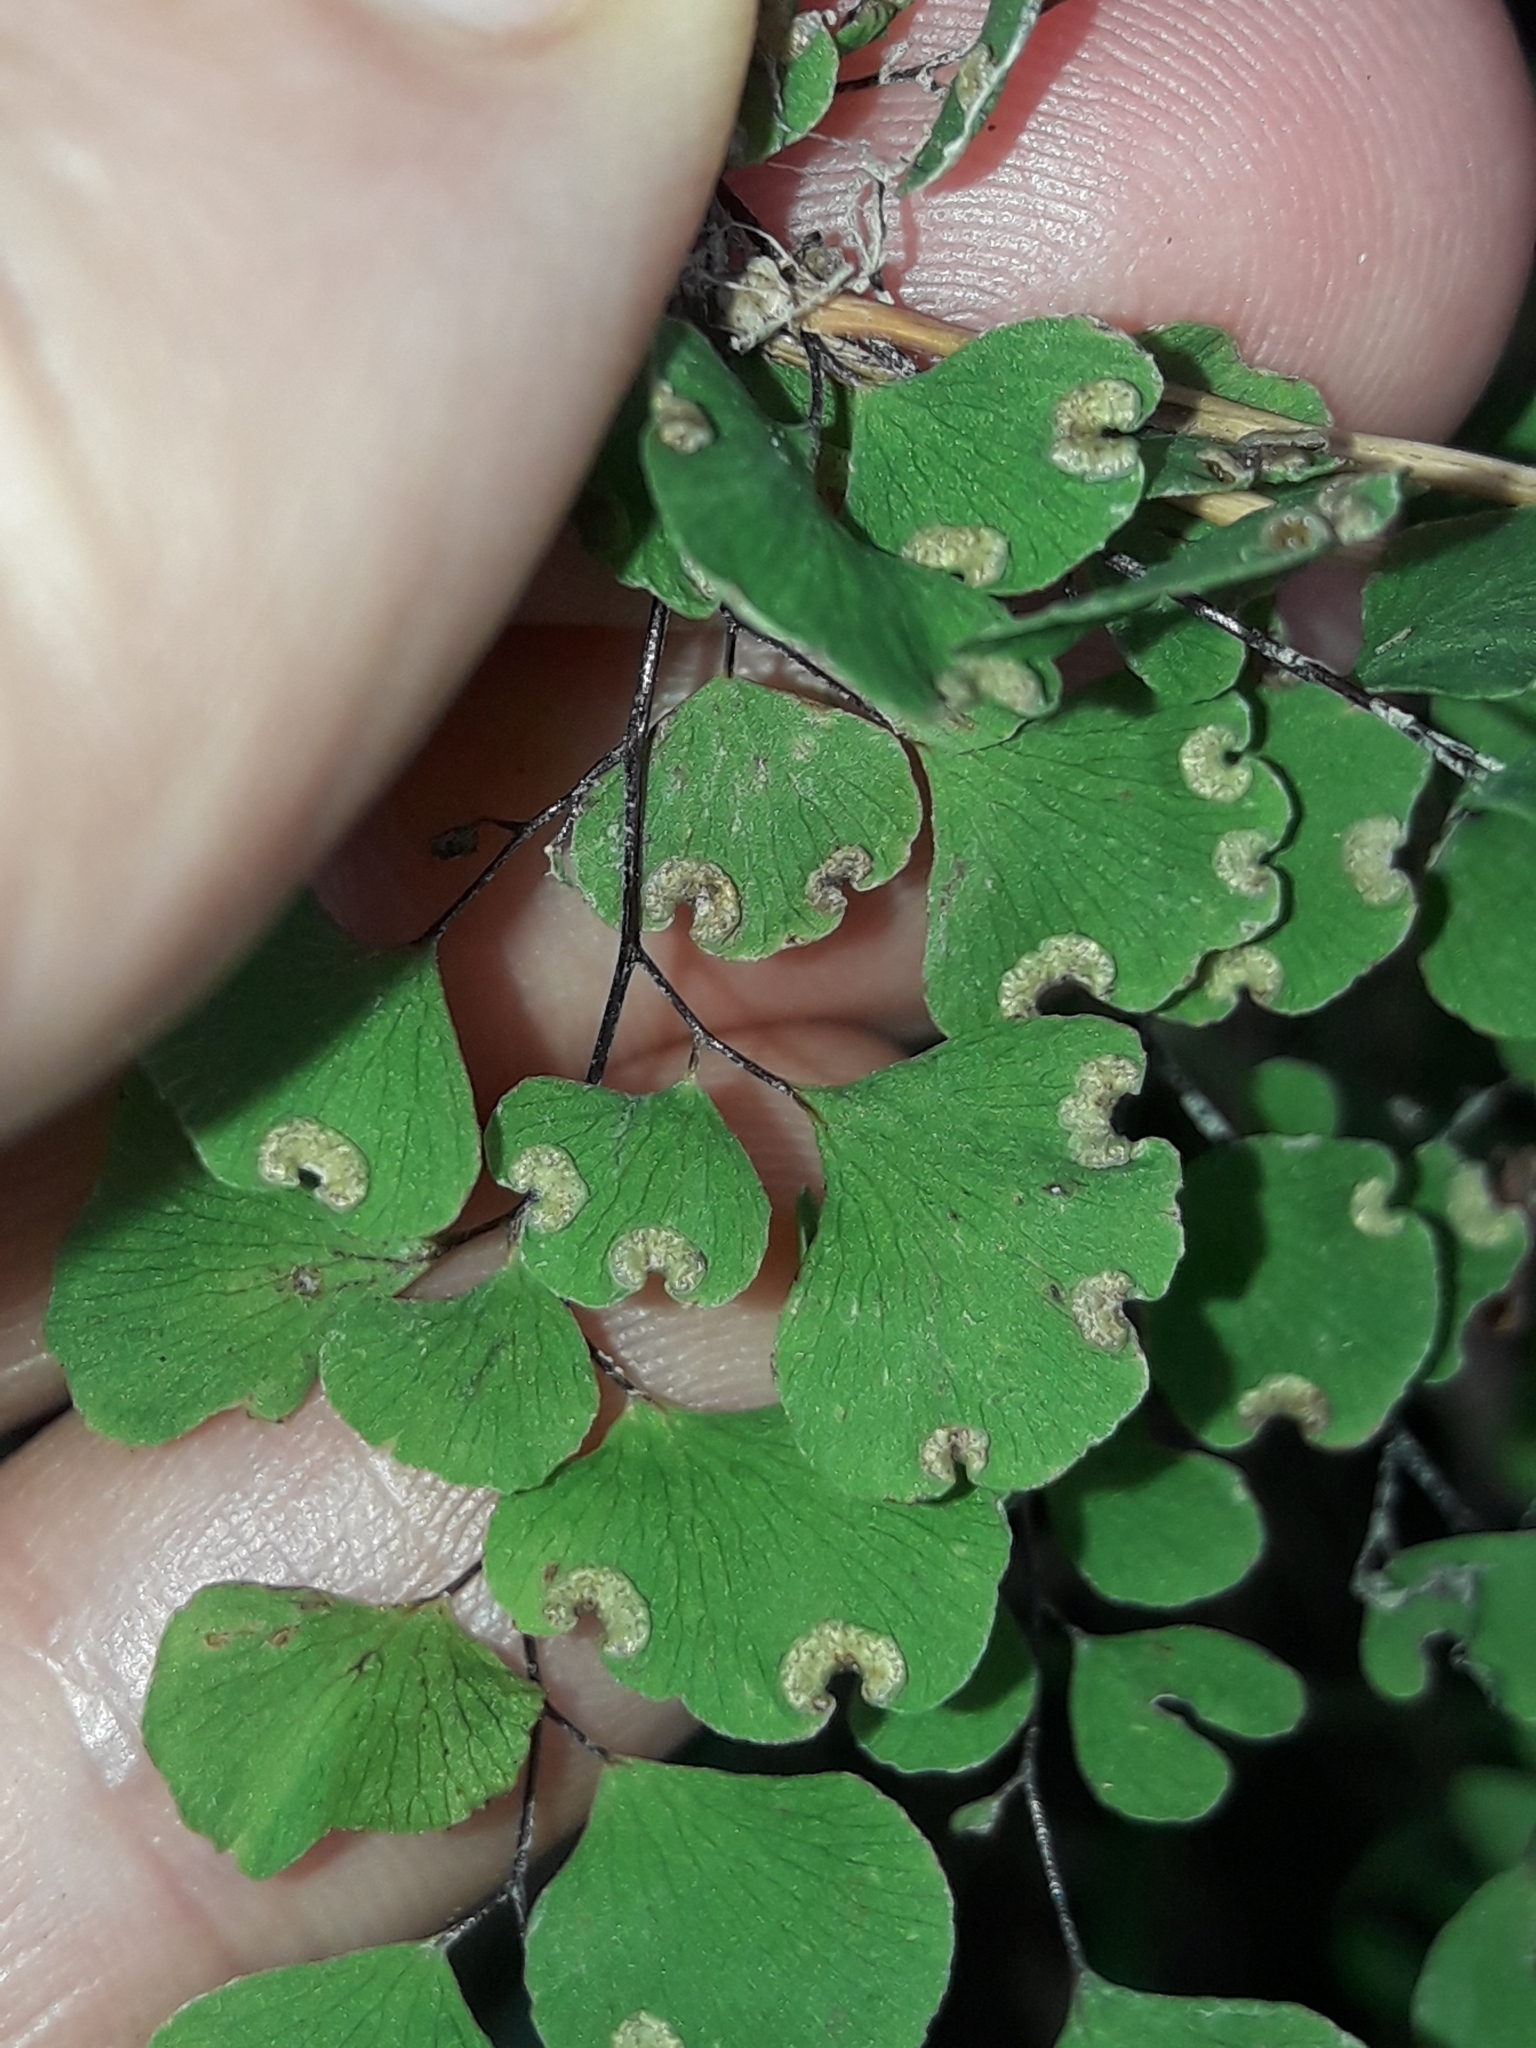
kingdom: Plantae
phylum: Tracheophyta
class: Polypodiopsida
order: Polypodiales
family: Pteridaceae
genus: Adiantum
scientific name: Adiantum aethiopicum
